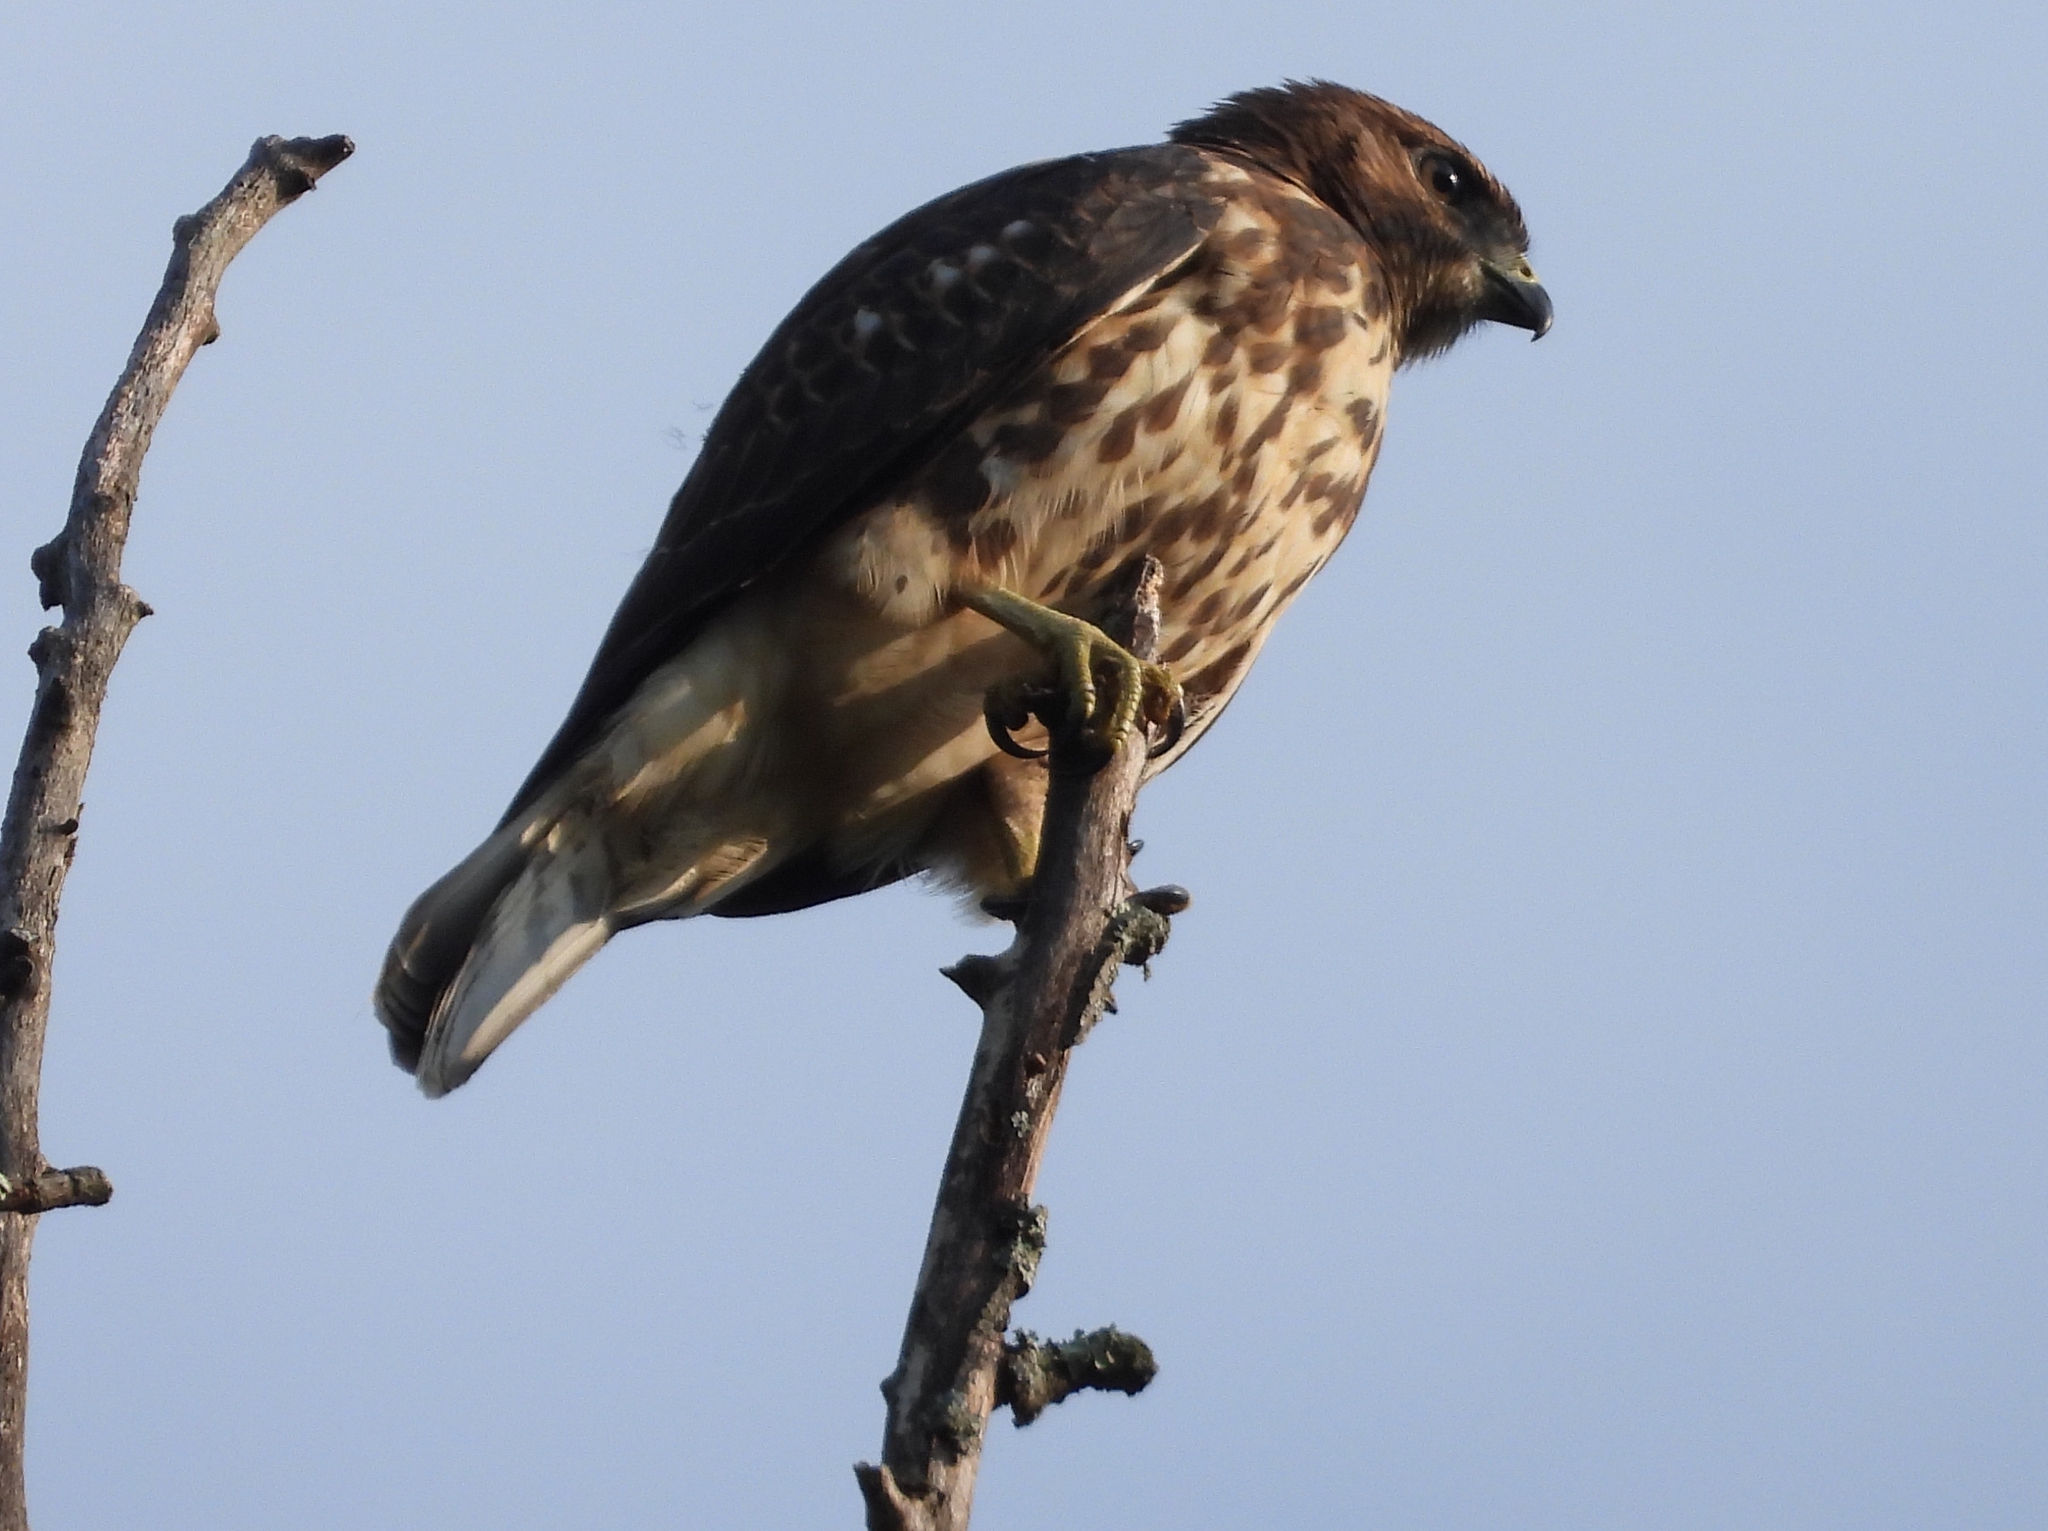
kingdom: Animalia
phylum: Chordata
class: Aves
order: Accipitriformes
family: Accipitridae
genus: Buteo
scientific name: Buteo platypterus
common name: Broad-winged hawk
